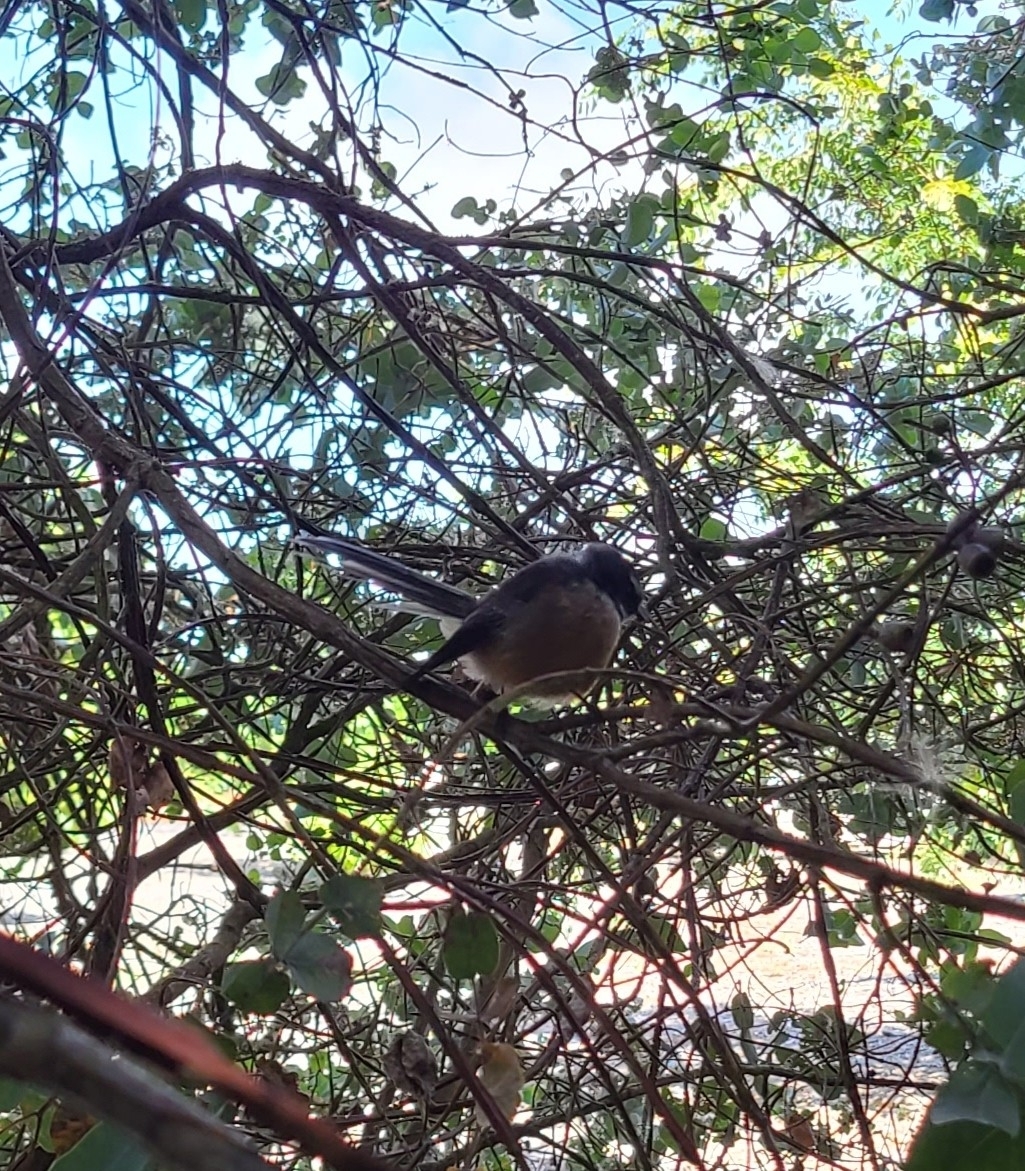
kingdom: Animalia
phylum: Chordata
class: Aves
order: Passeriformes
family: Rhipiduridae
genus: Rhipidura
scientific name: Rhipidura fuliginosa
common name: New zealand fantail
